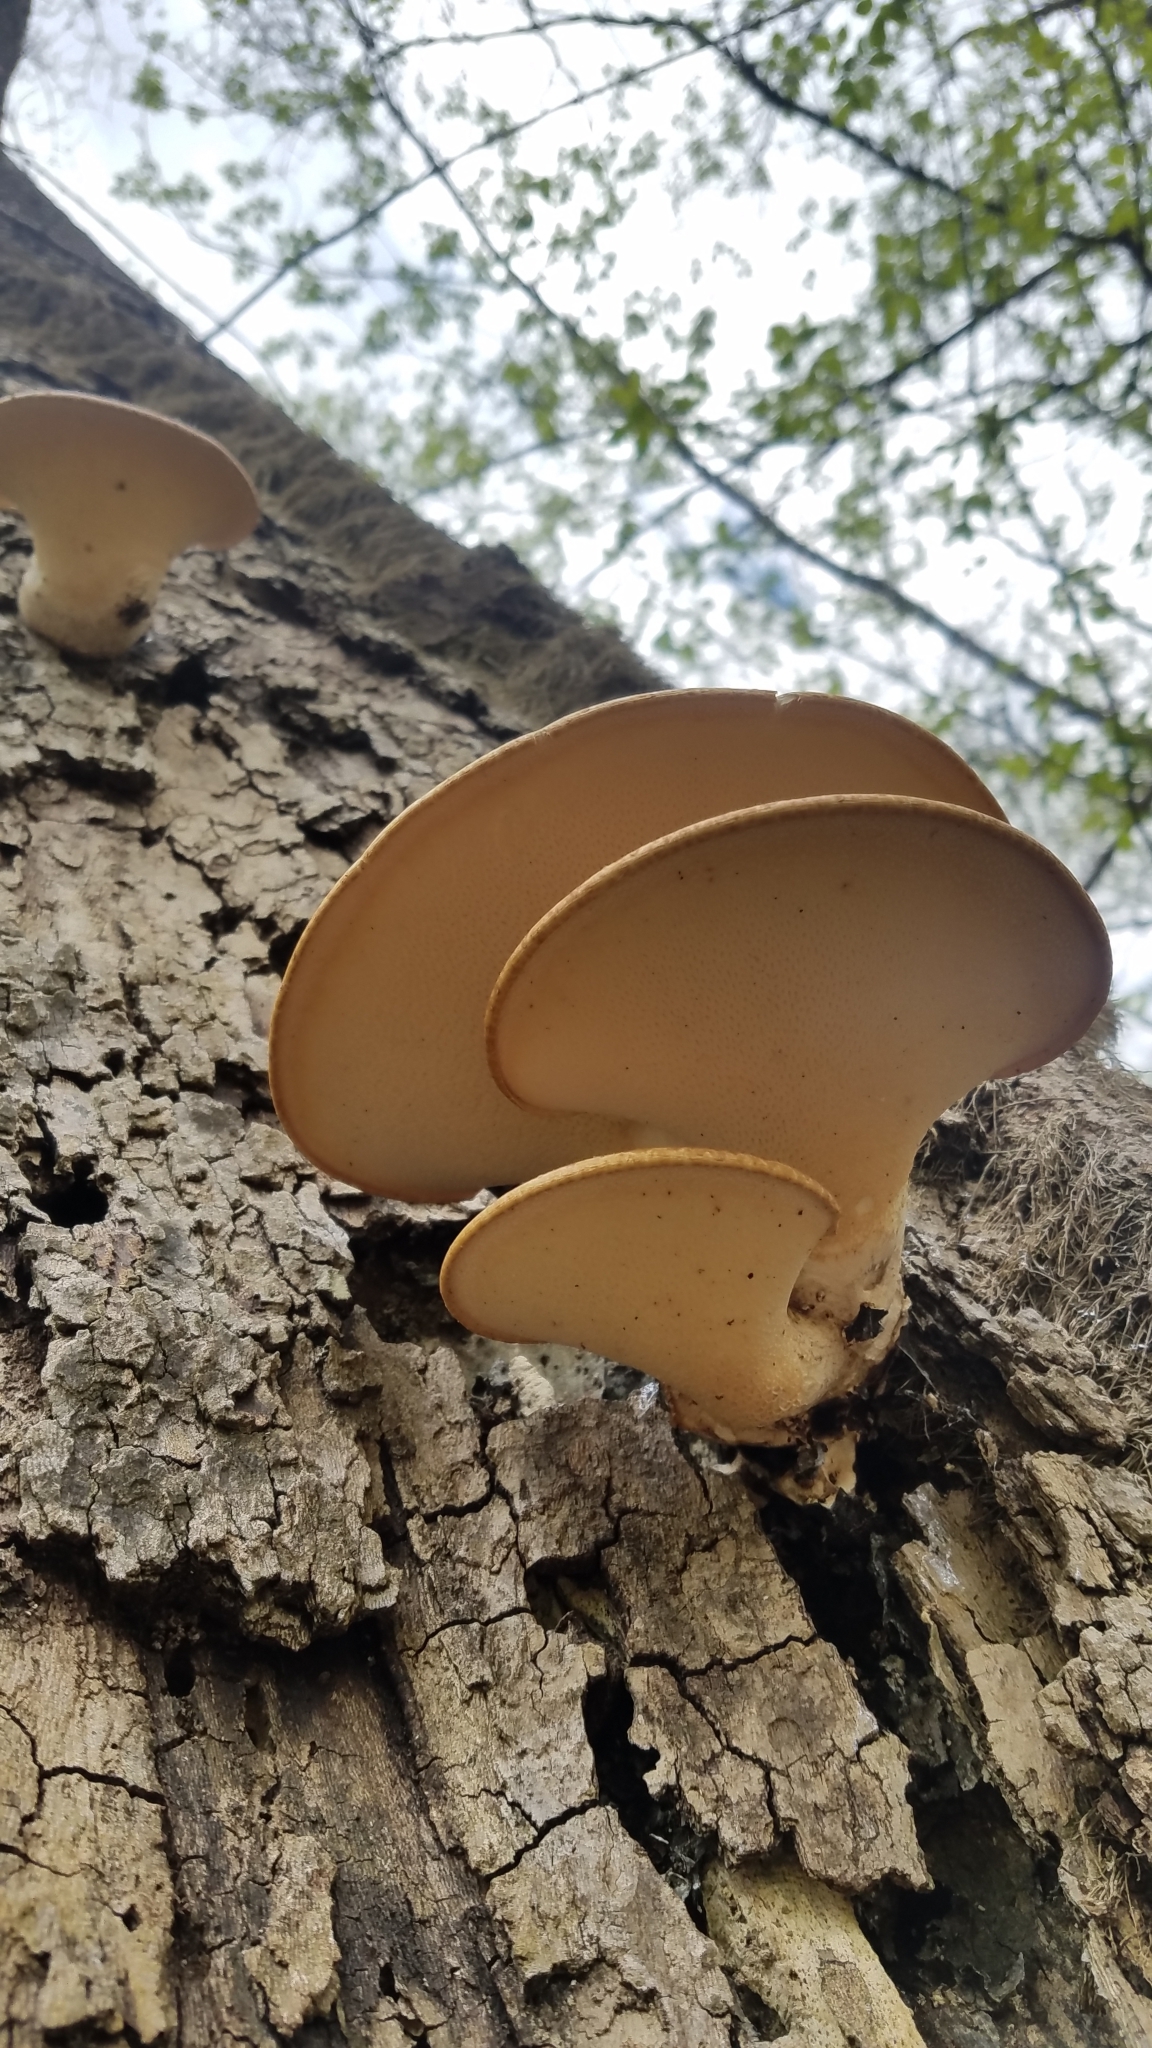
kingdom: Fungi
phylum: Basidiomycota
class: Agaricomycetes
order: Polyporales
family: Polyporaceae
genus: Cerioporus
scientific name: Cerioporus squamosus
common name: Dryad's saddle
